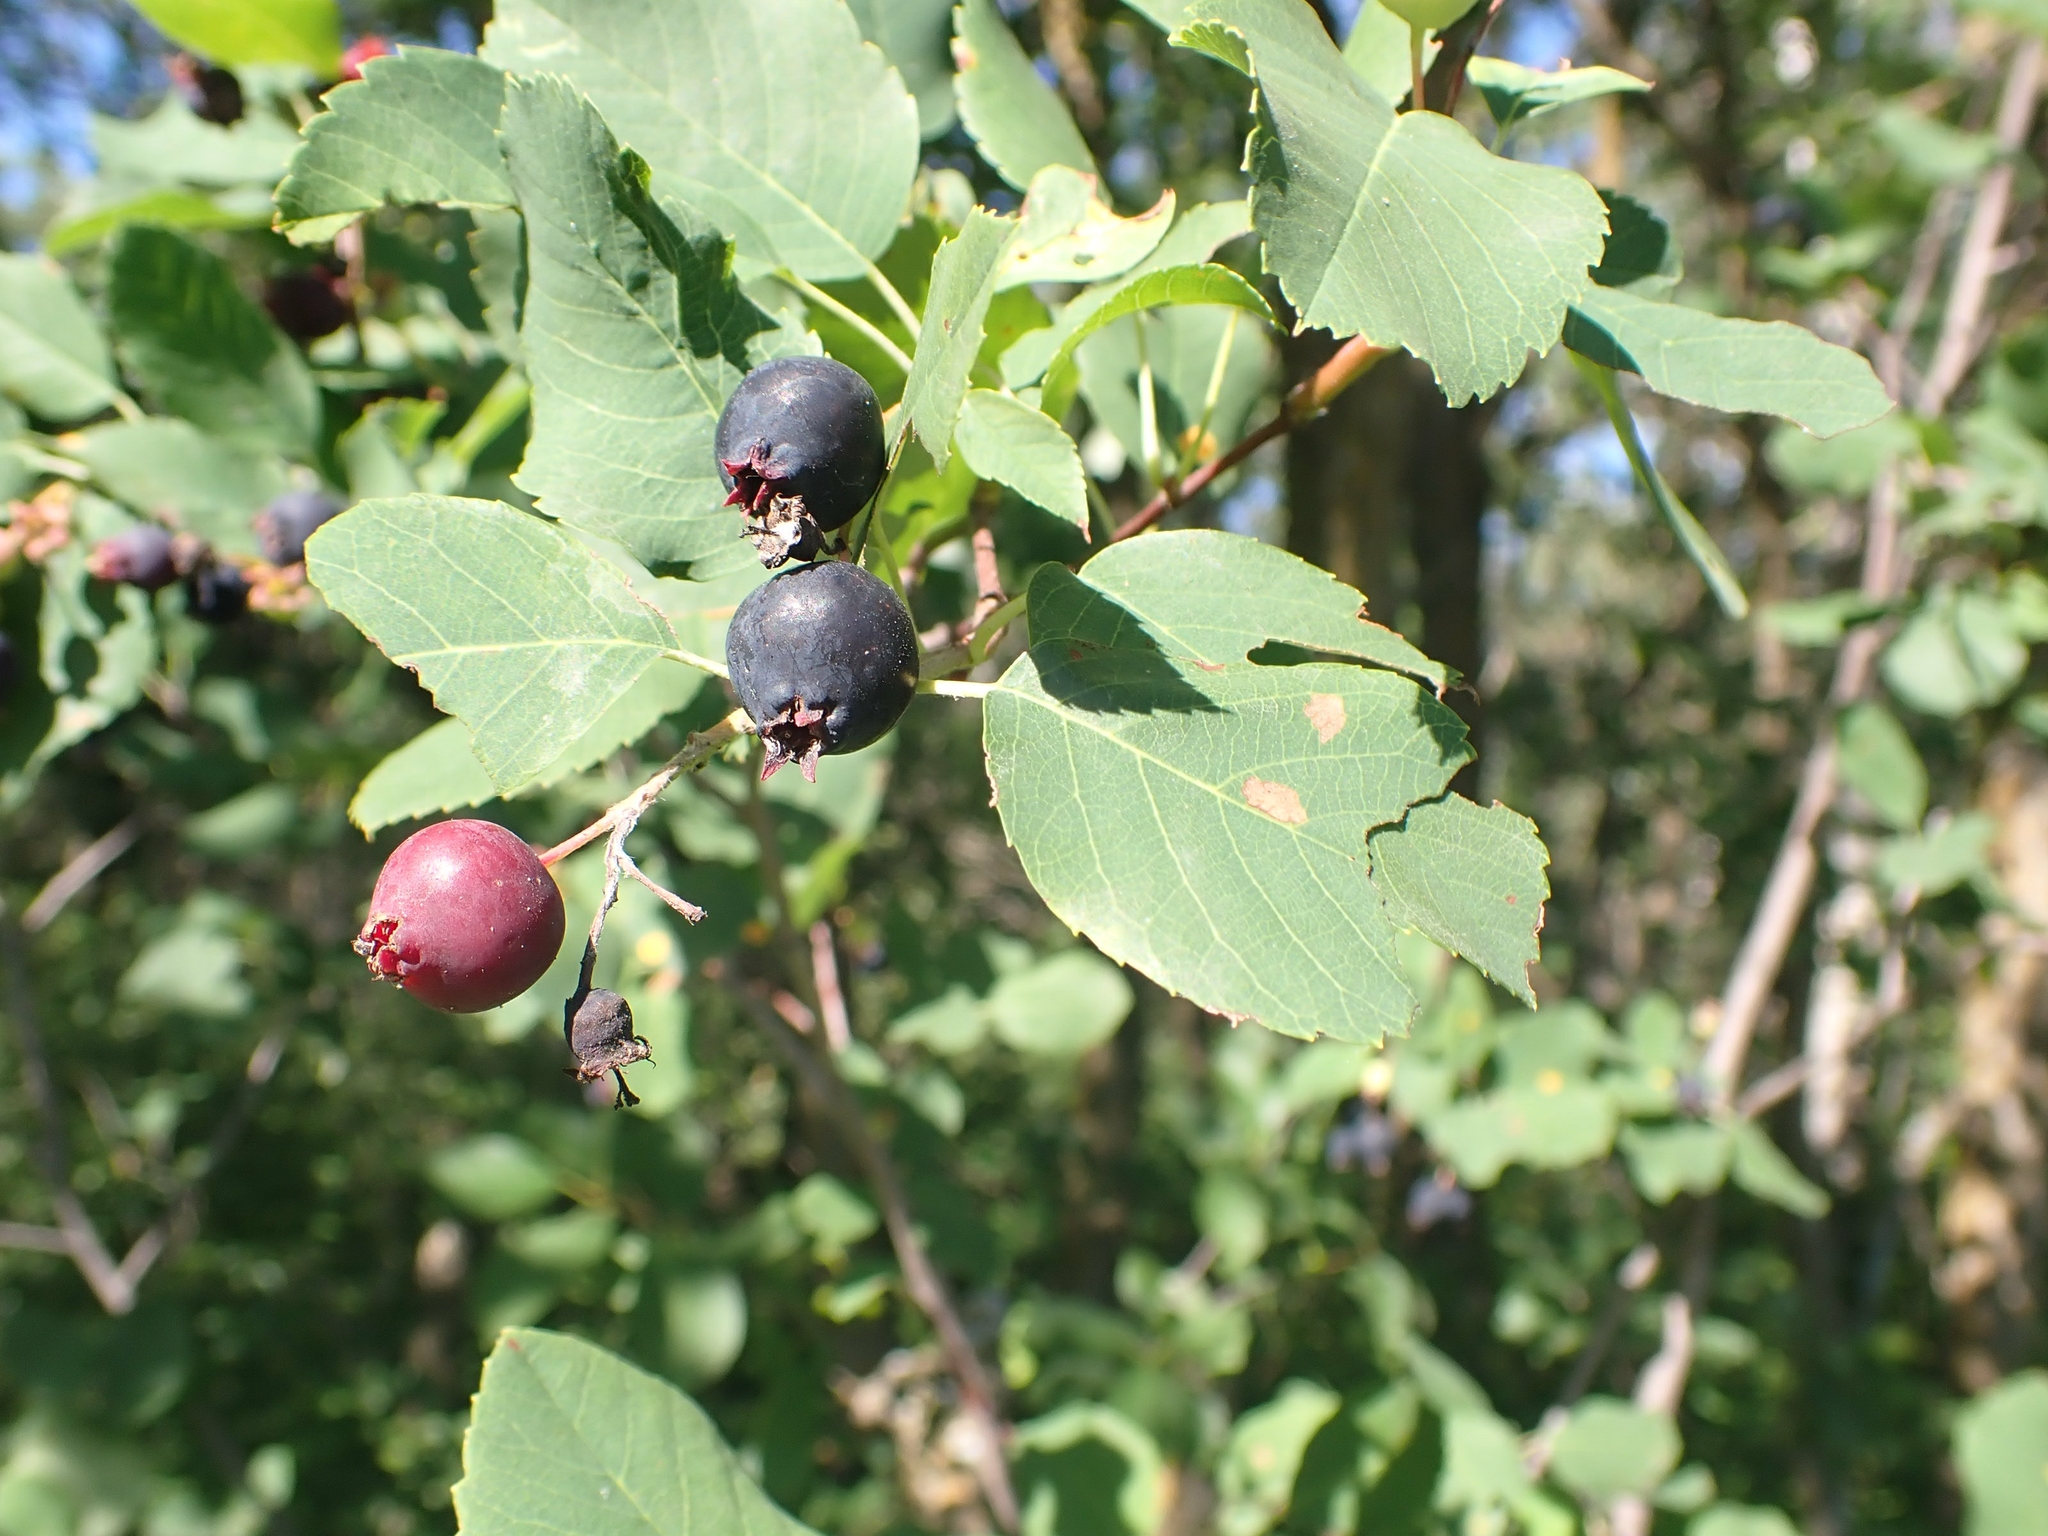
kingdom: Plantae
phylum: Tracheophyta
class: Magnoliopsida
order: Rosales
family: Rosaceae
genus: Amelanchier
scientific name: Amelanchier alnifolia
